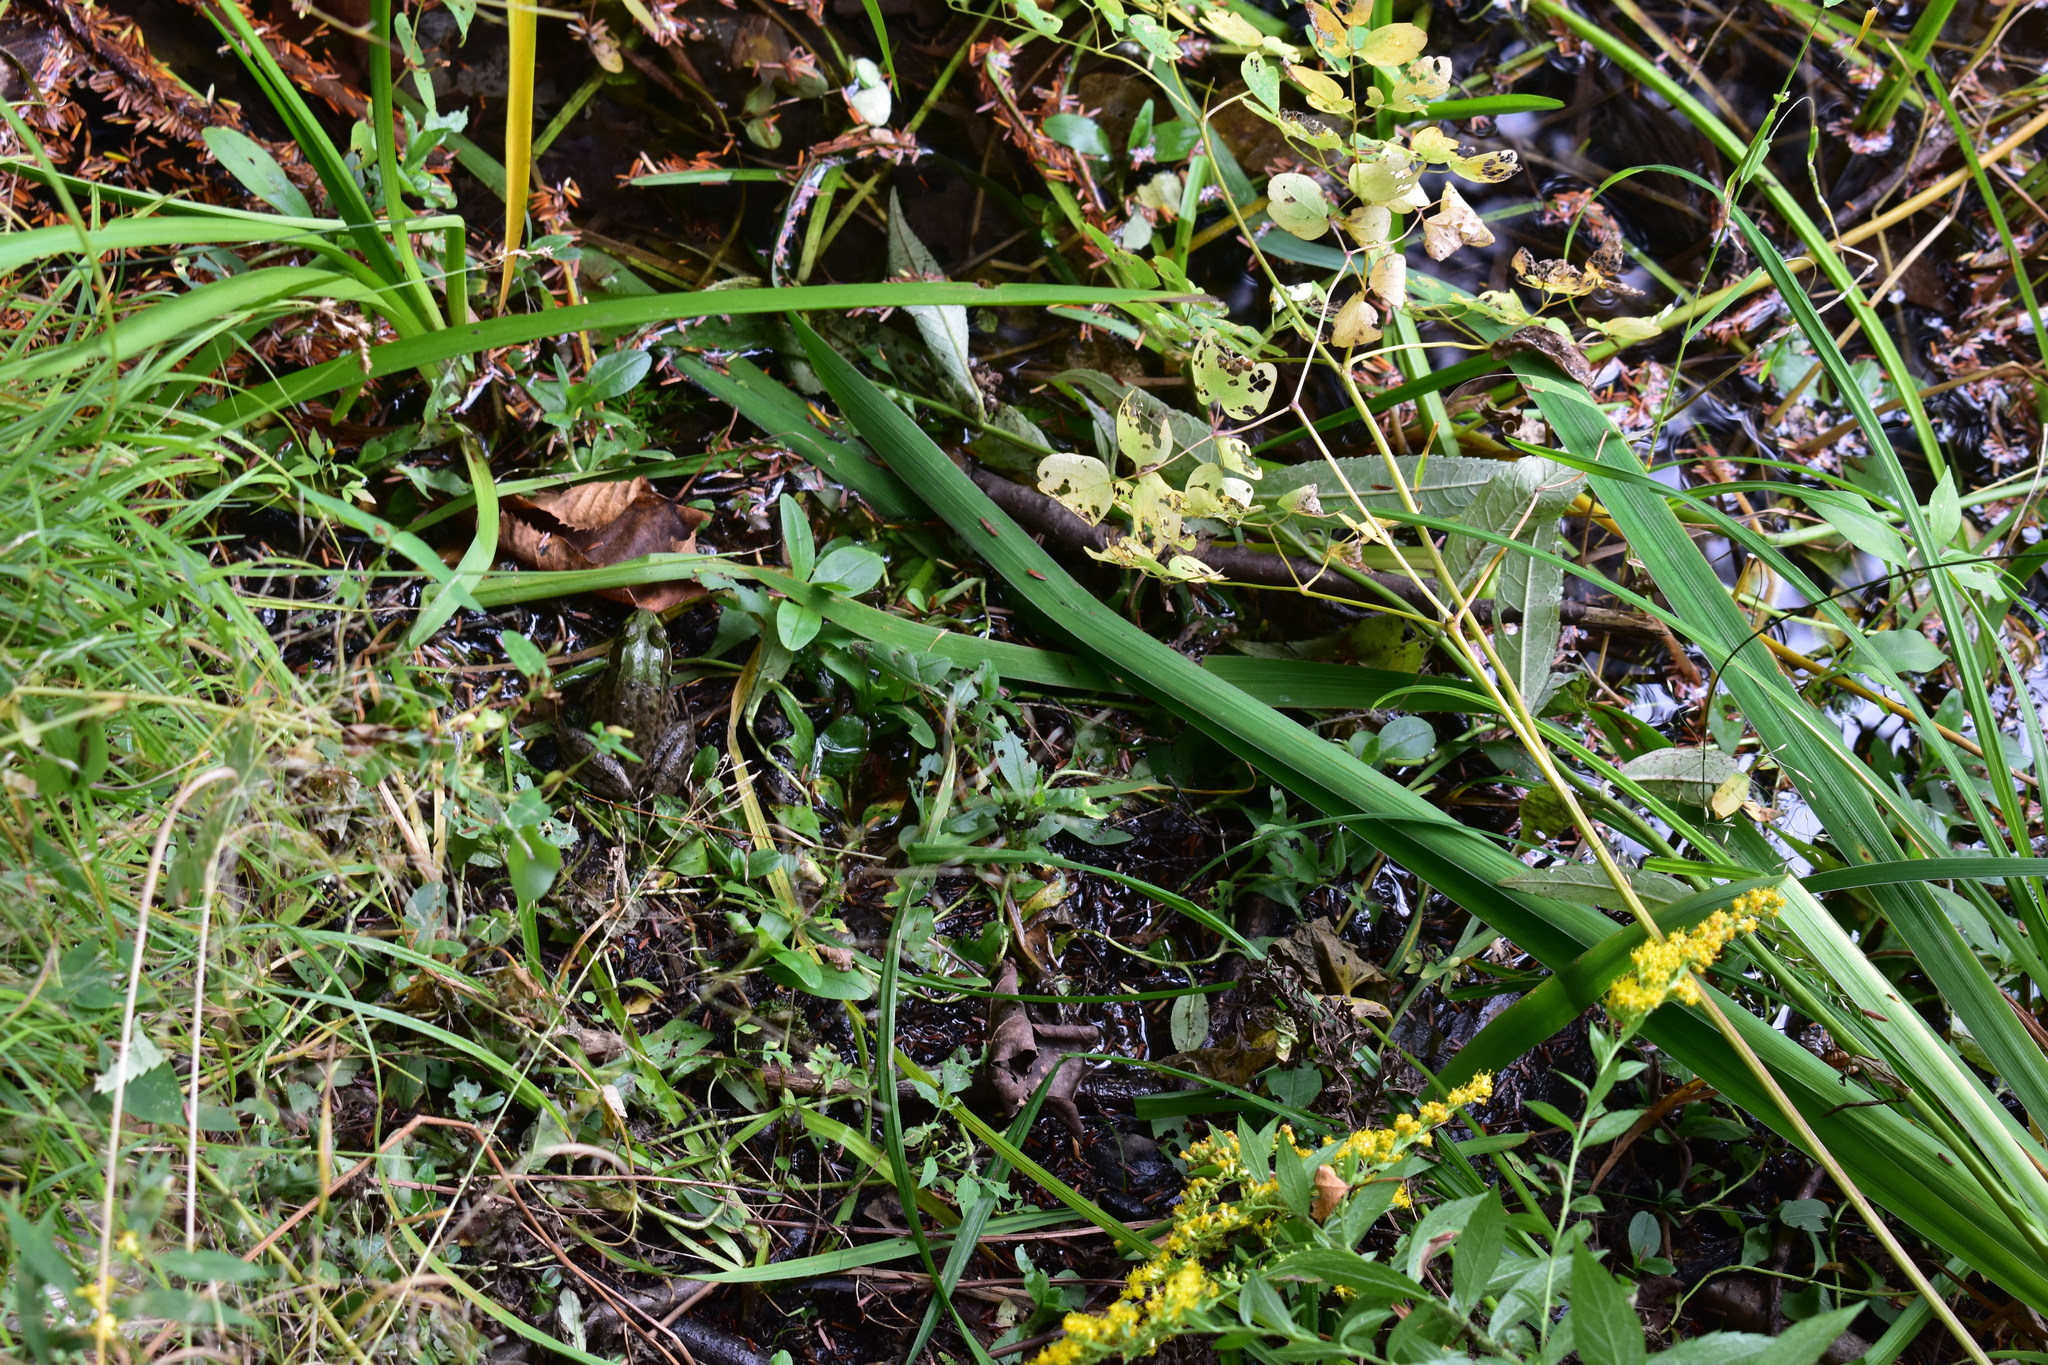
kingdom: Animalia
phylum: Chordata
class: Amphibia
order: Anura
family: Ranidae
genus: Lithobates
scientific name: Lithobates clamitans
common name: Green frog
